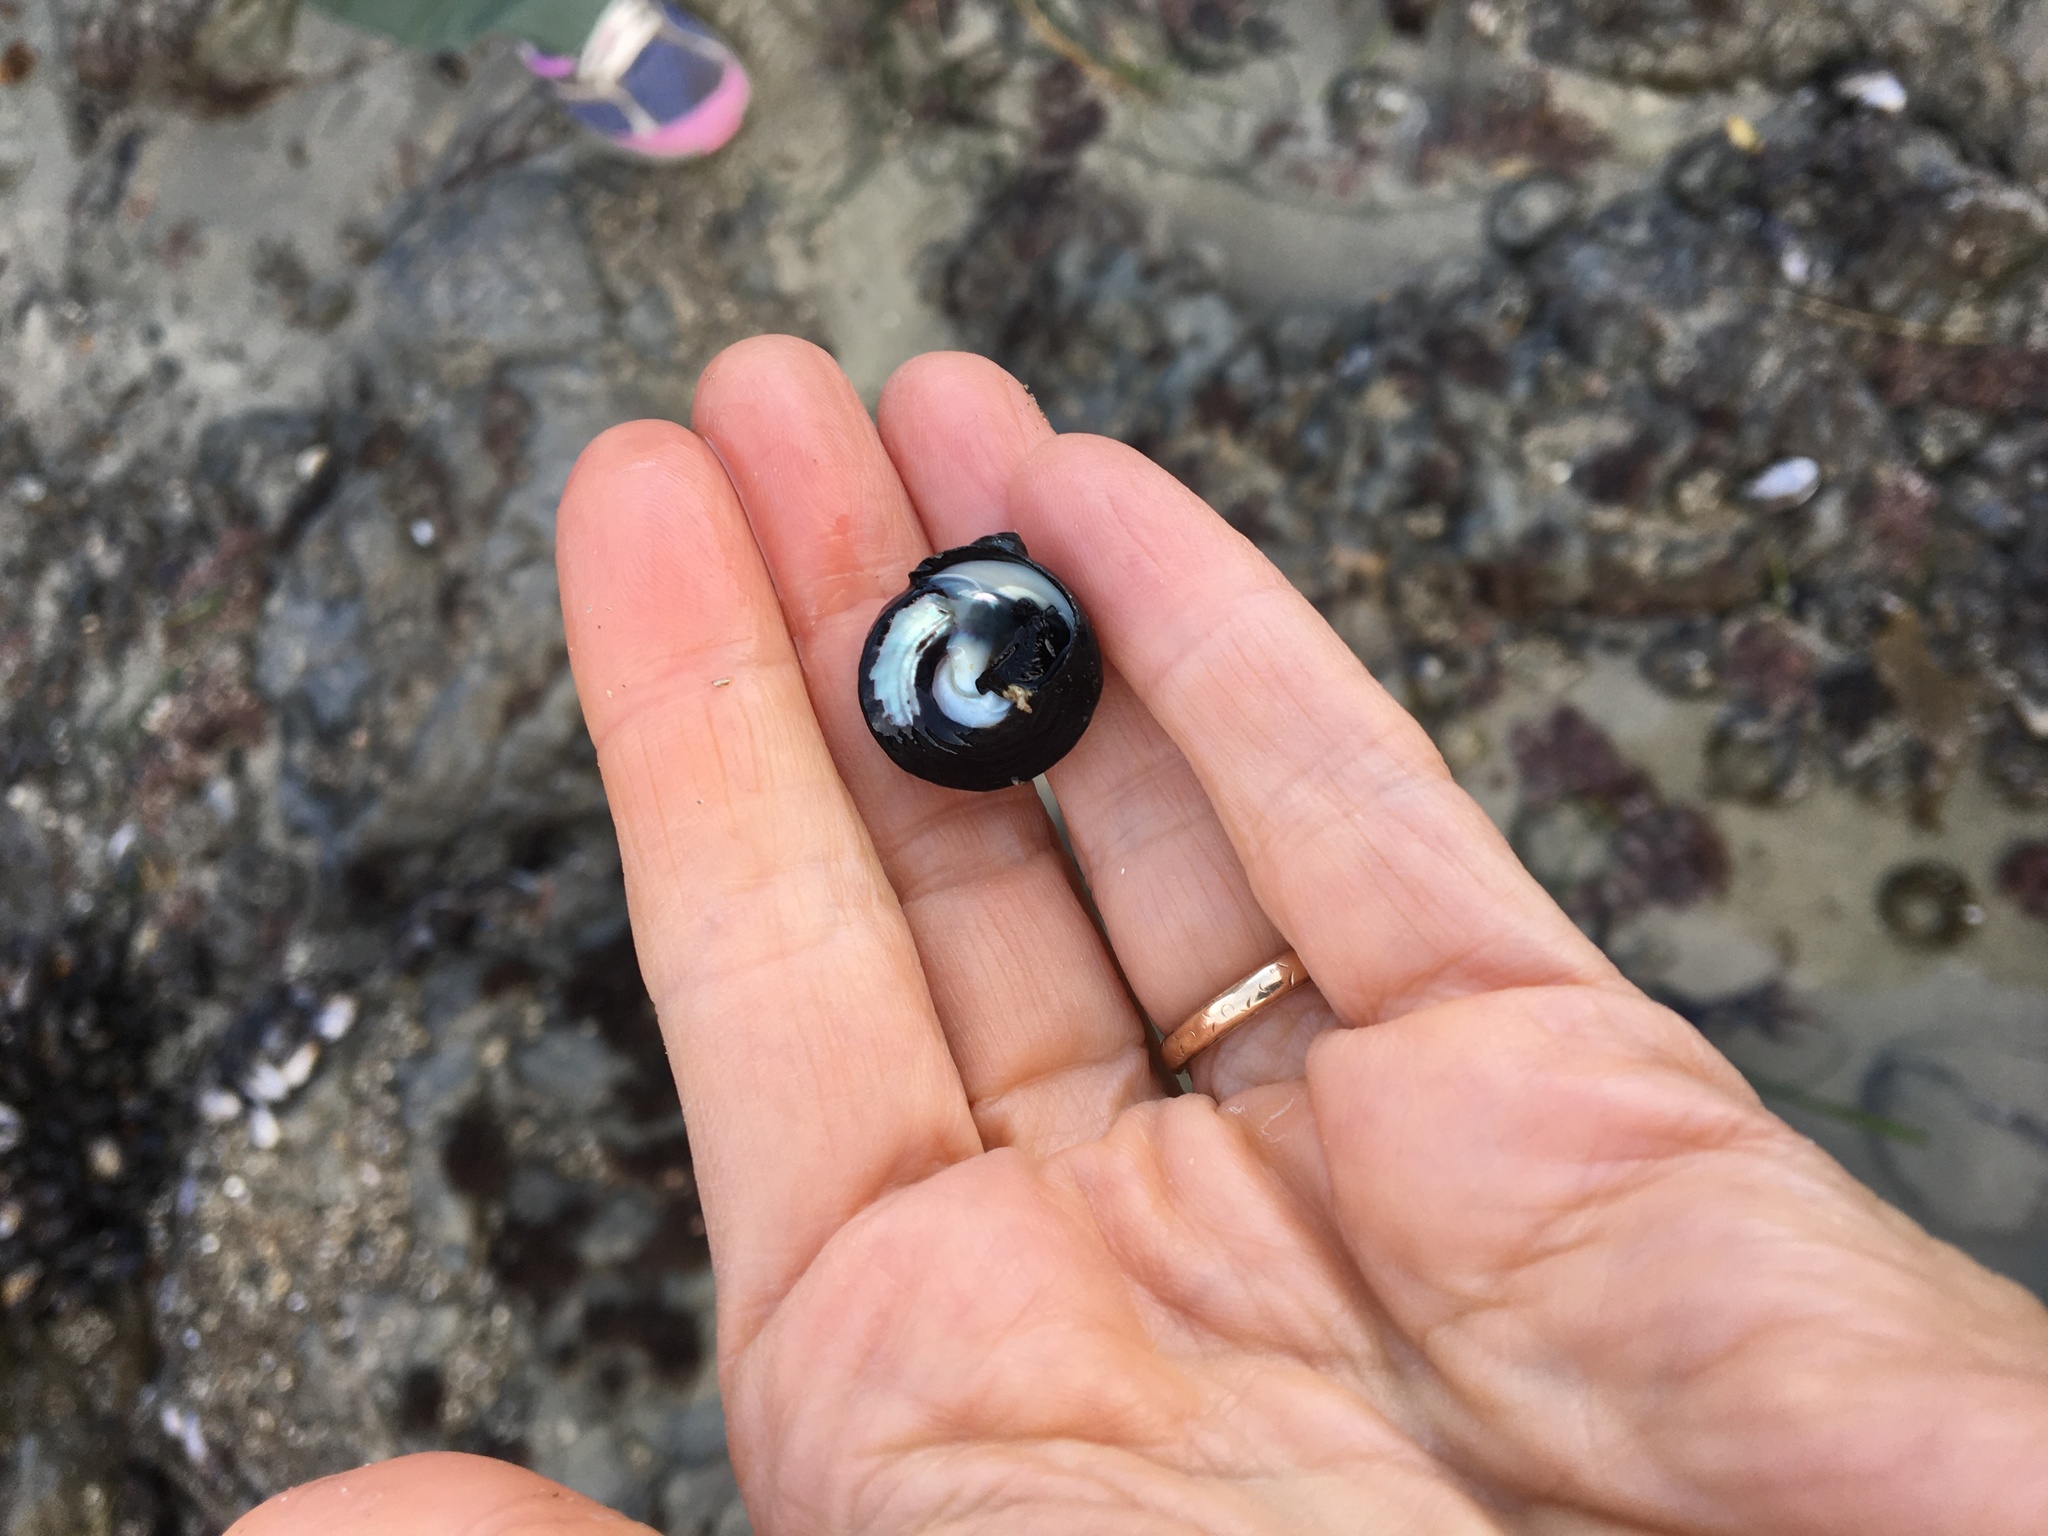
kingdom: Animalia
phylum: Mollusca
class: Gastropoda
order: Trochida
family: Tegulidae
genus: Tegula
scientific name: Tegula funebralis
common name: Black tegula
